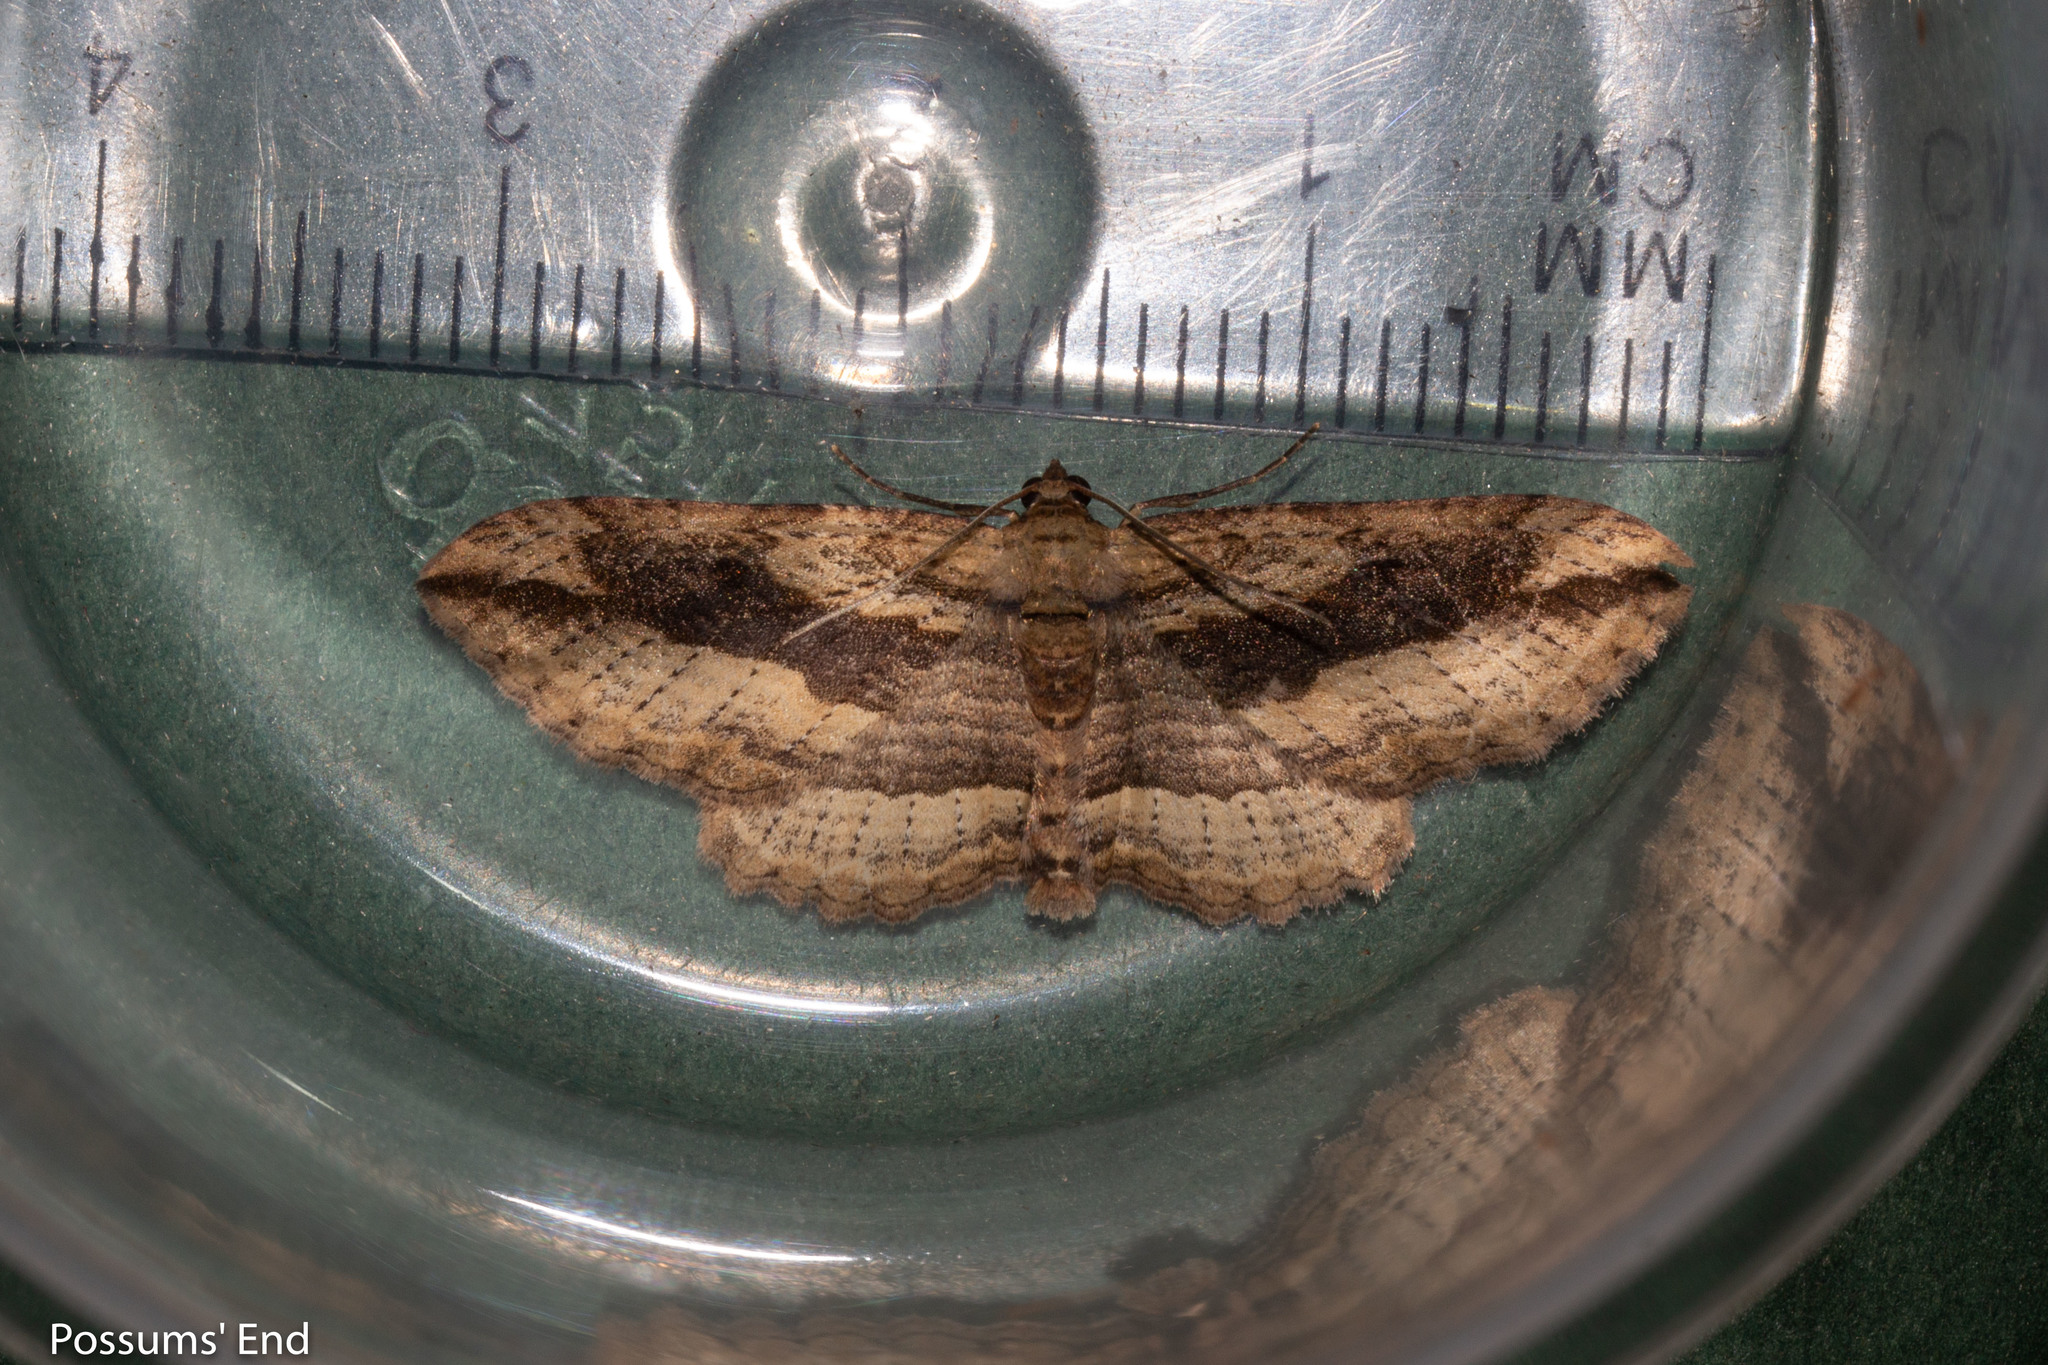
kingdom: Animalia
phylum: Arthropoda
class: Insecta
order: Lepidoptera
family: Geometridae
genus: Austrocidaria
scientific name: Austrocidaria gobiata
